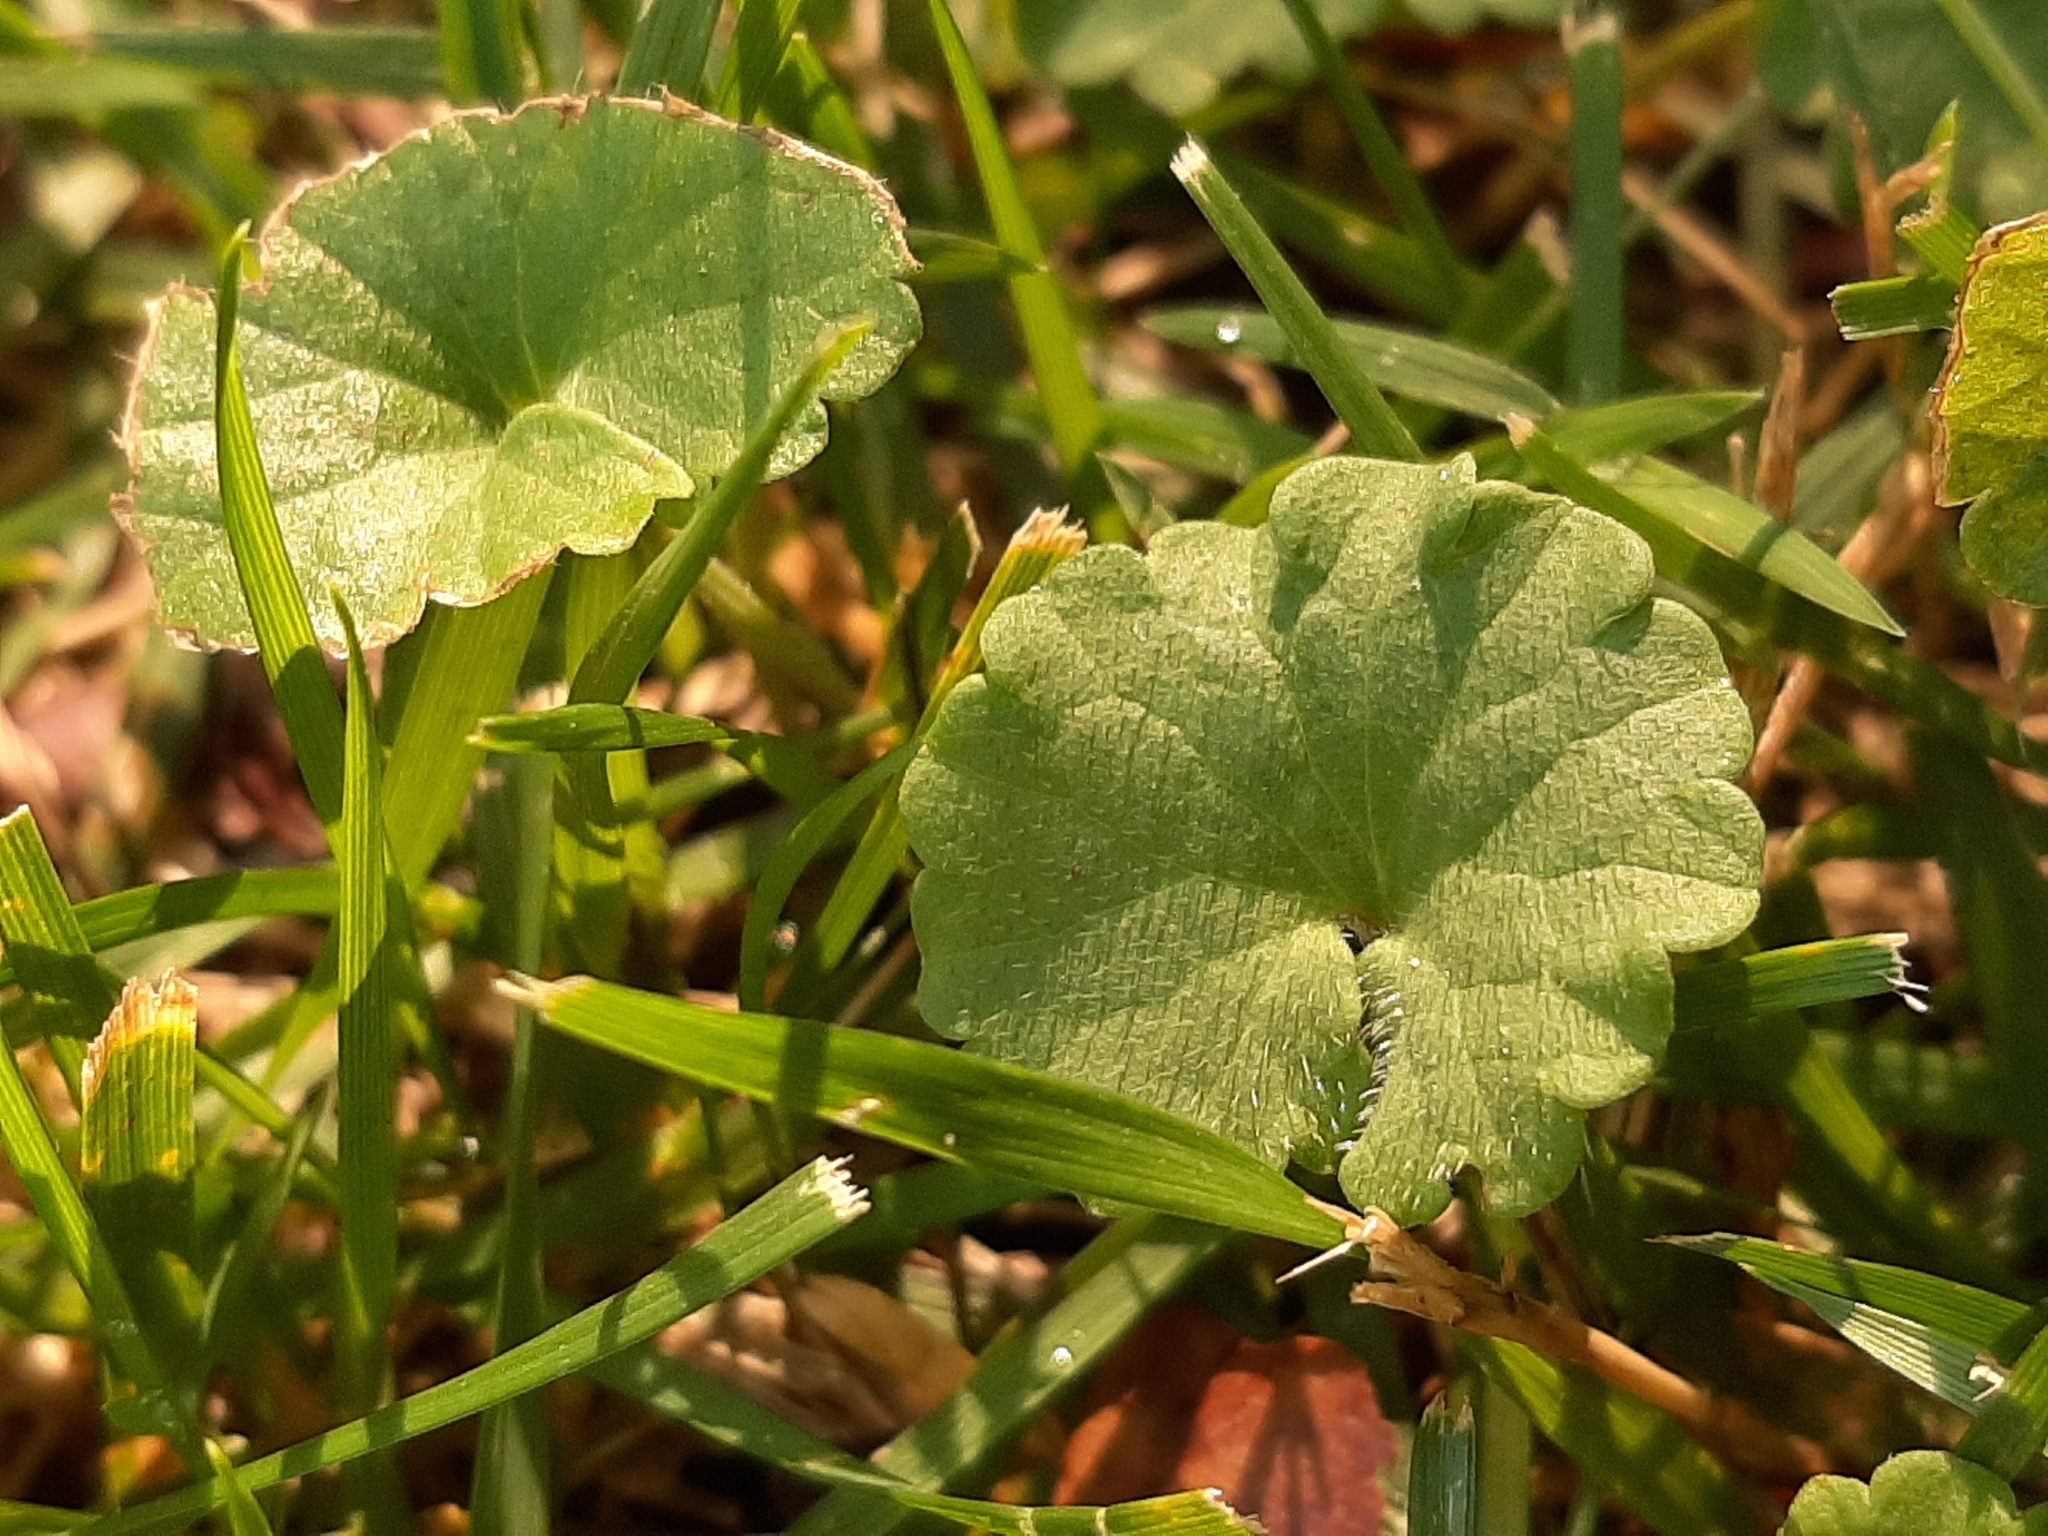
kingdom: Plantae
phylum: Tracheophyta
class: Magnoliopsida
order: Lamiales
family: Lamiaceae
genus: Glechoma
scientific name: Glechoma hederacea
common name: Ground ivy
